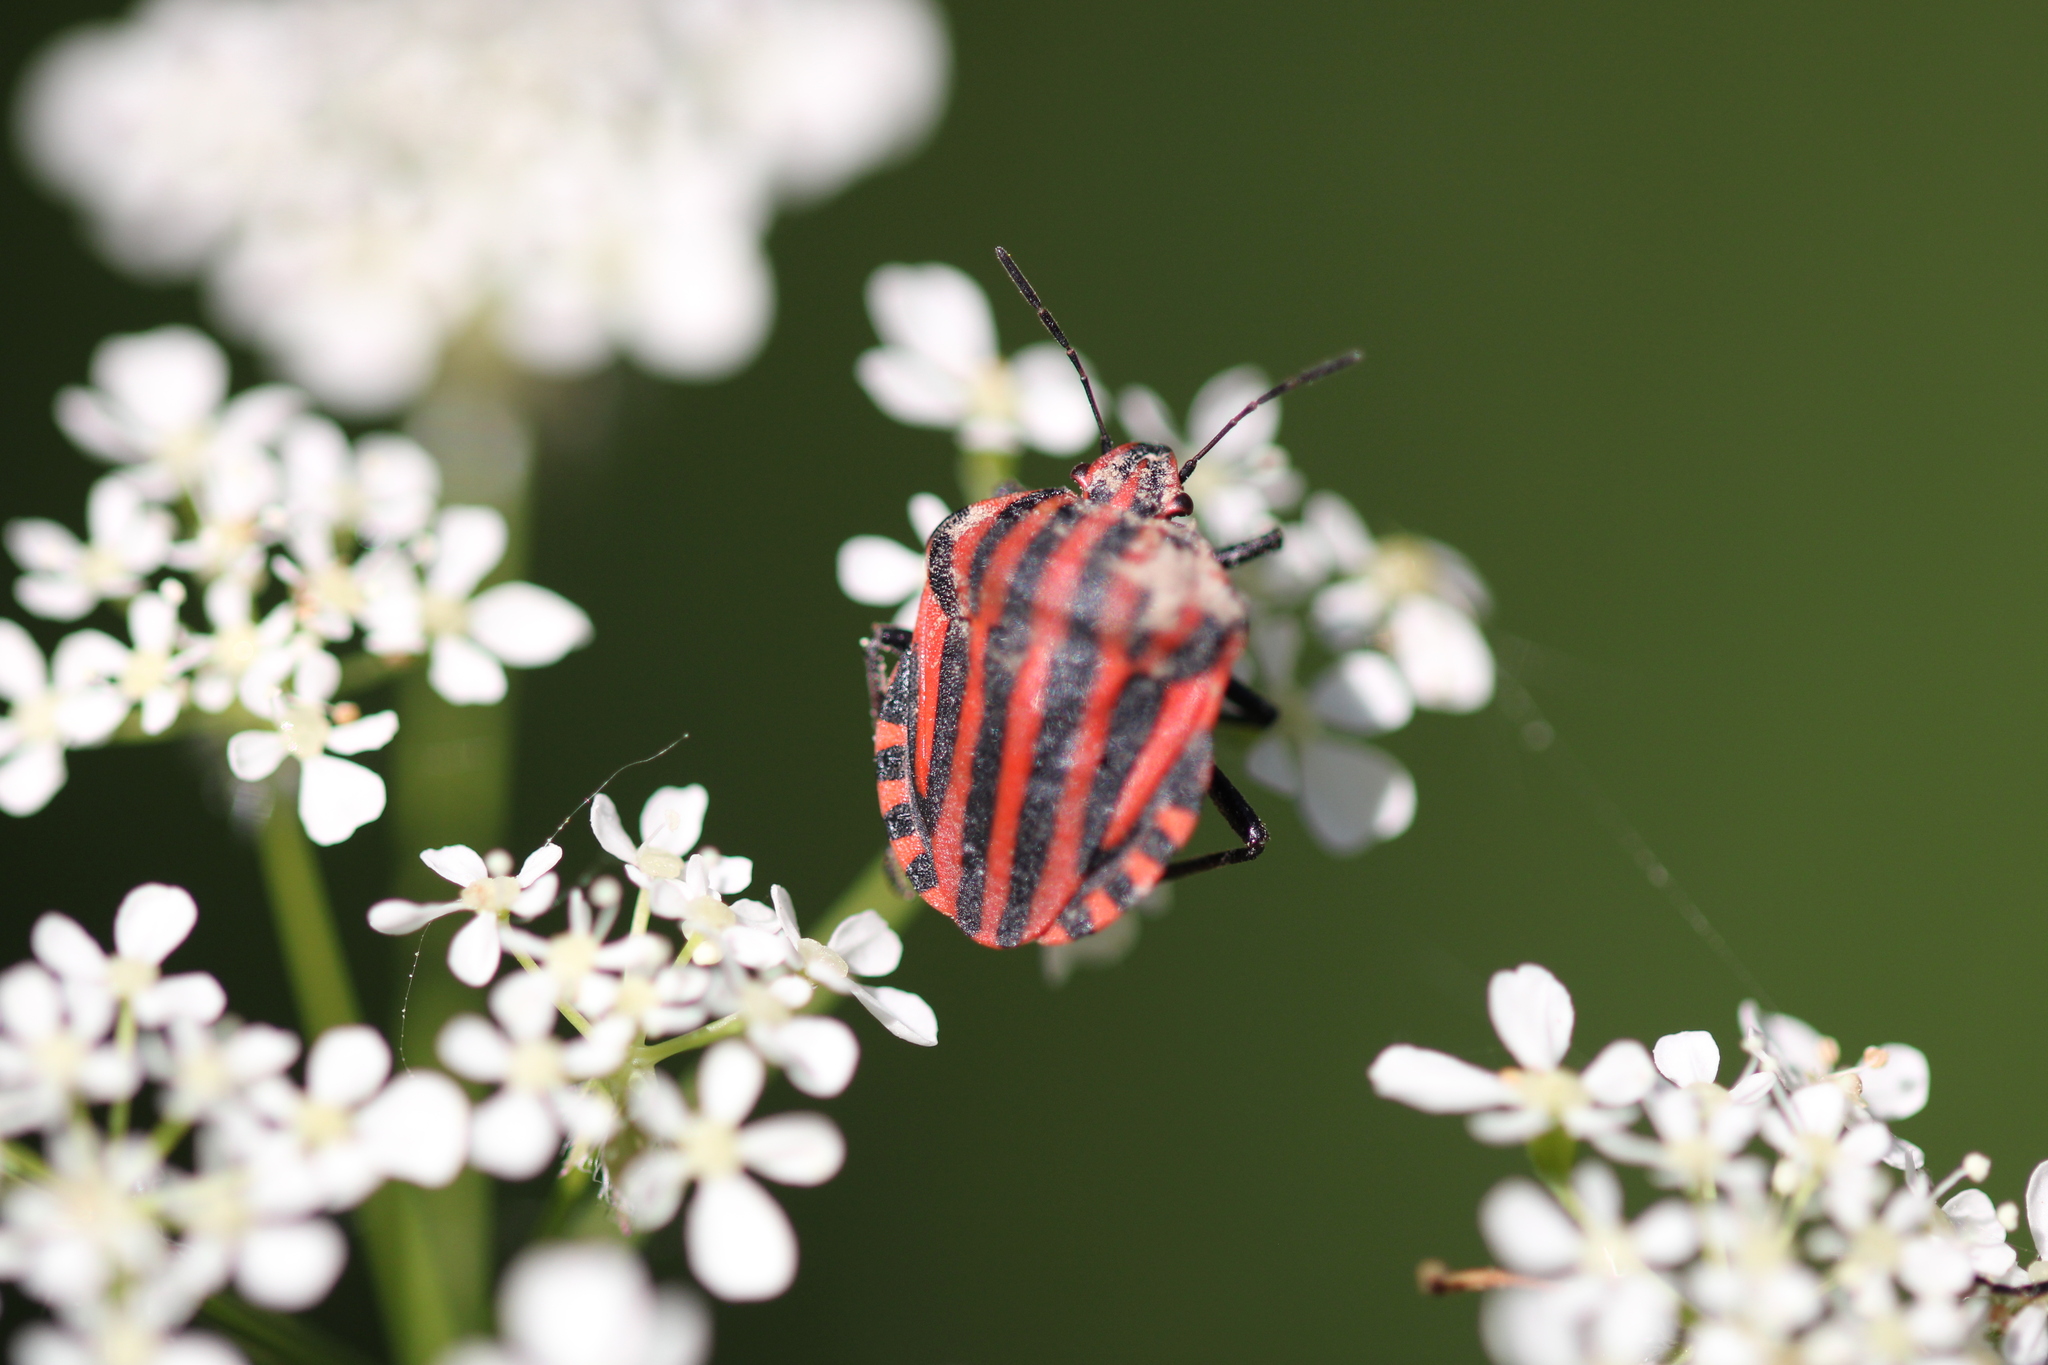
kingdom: Animalia
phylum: Arthropoda
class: Insecta
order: Hemiptera
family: Pentatomidae
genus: Graphosoma
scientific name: Graphosoma italicum
